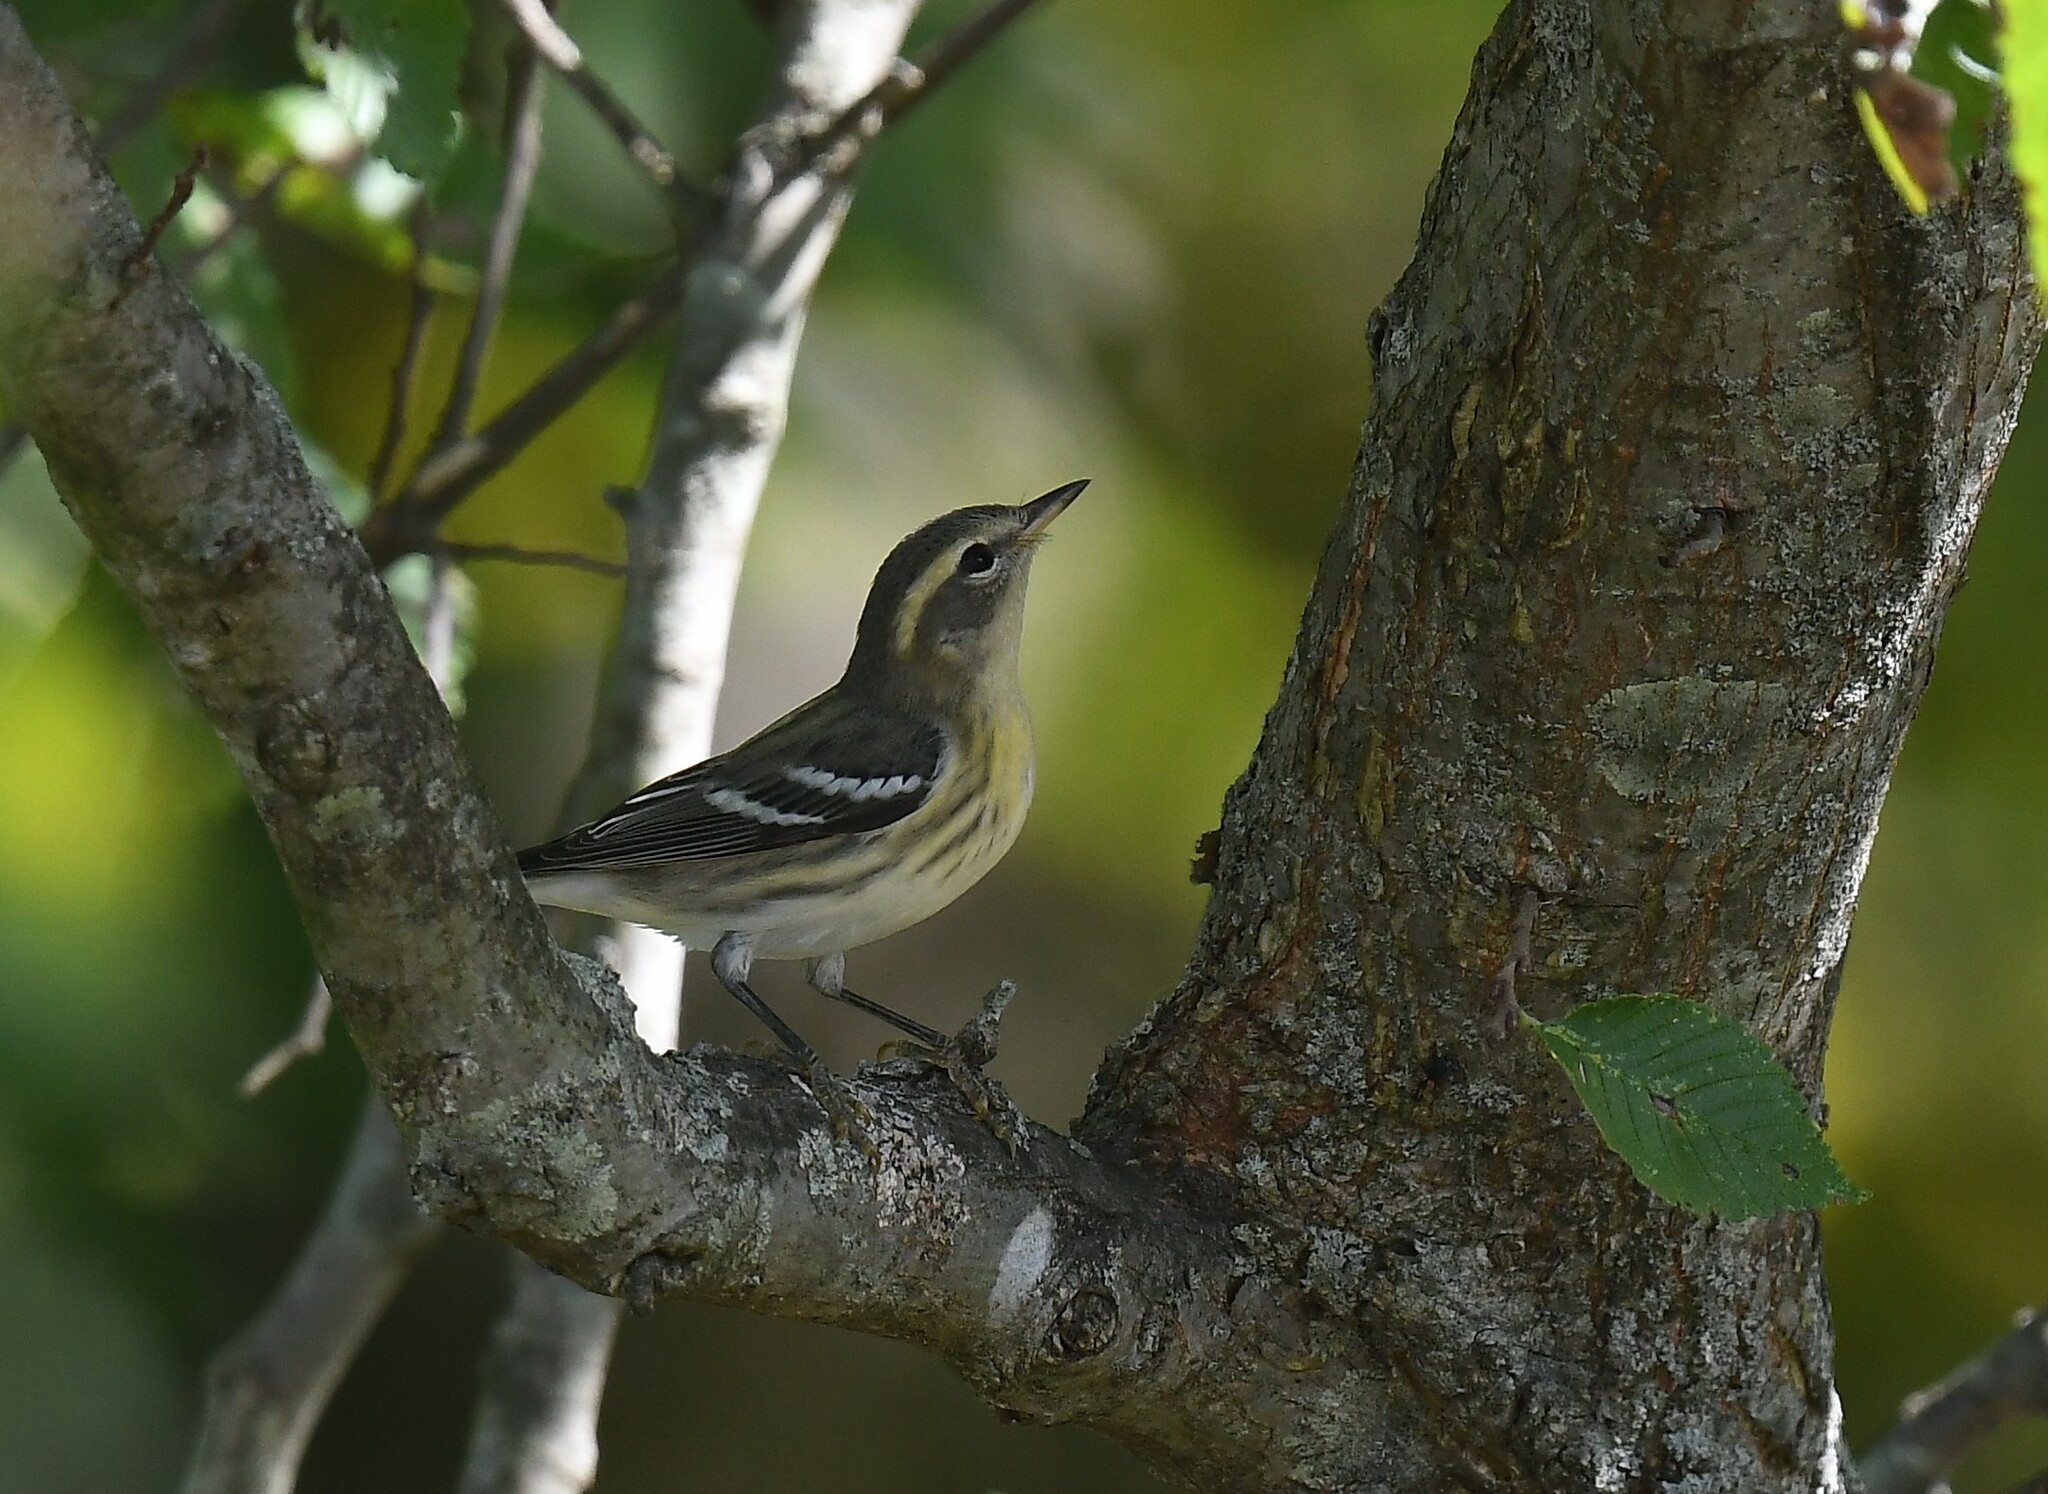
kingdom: Animalia
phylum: Chordata
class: Aves
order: Passeriformes
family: Parulidae
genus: Setophaga
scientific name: Setophaga fusca
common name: Blackburnian warbler
